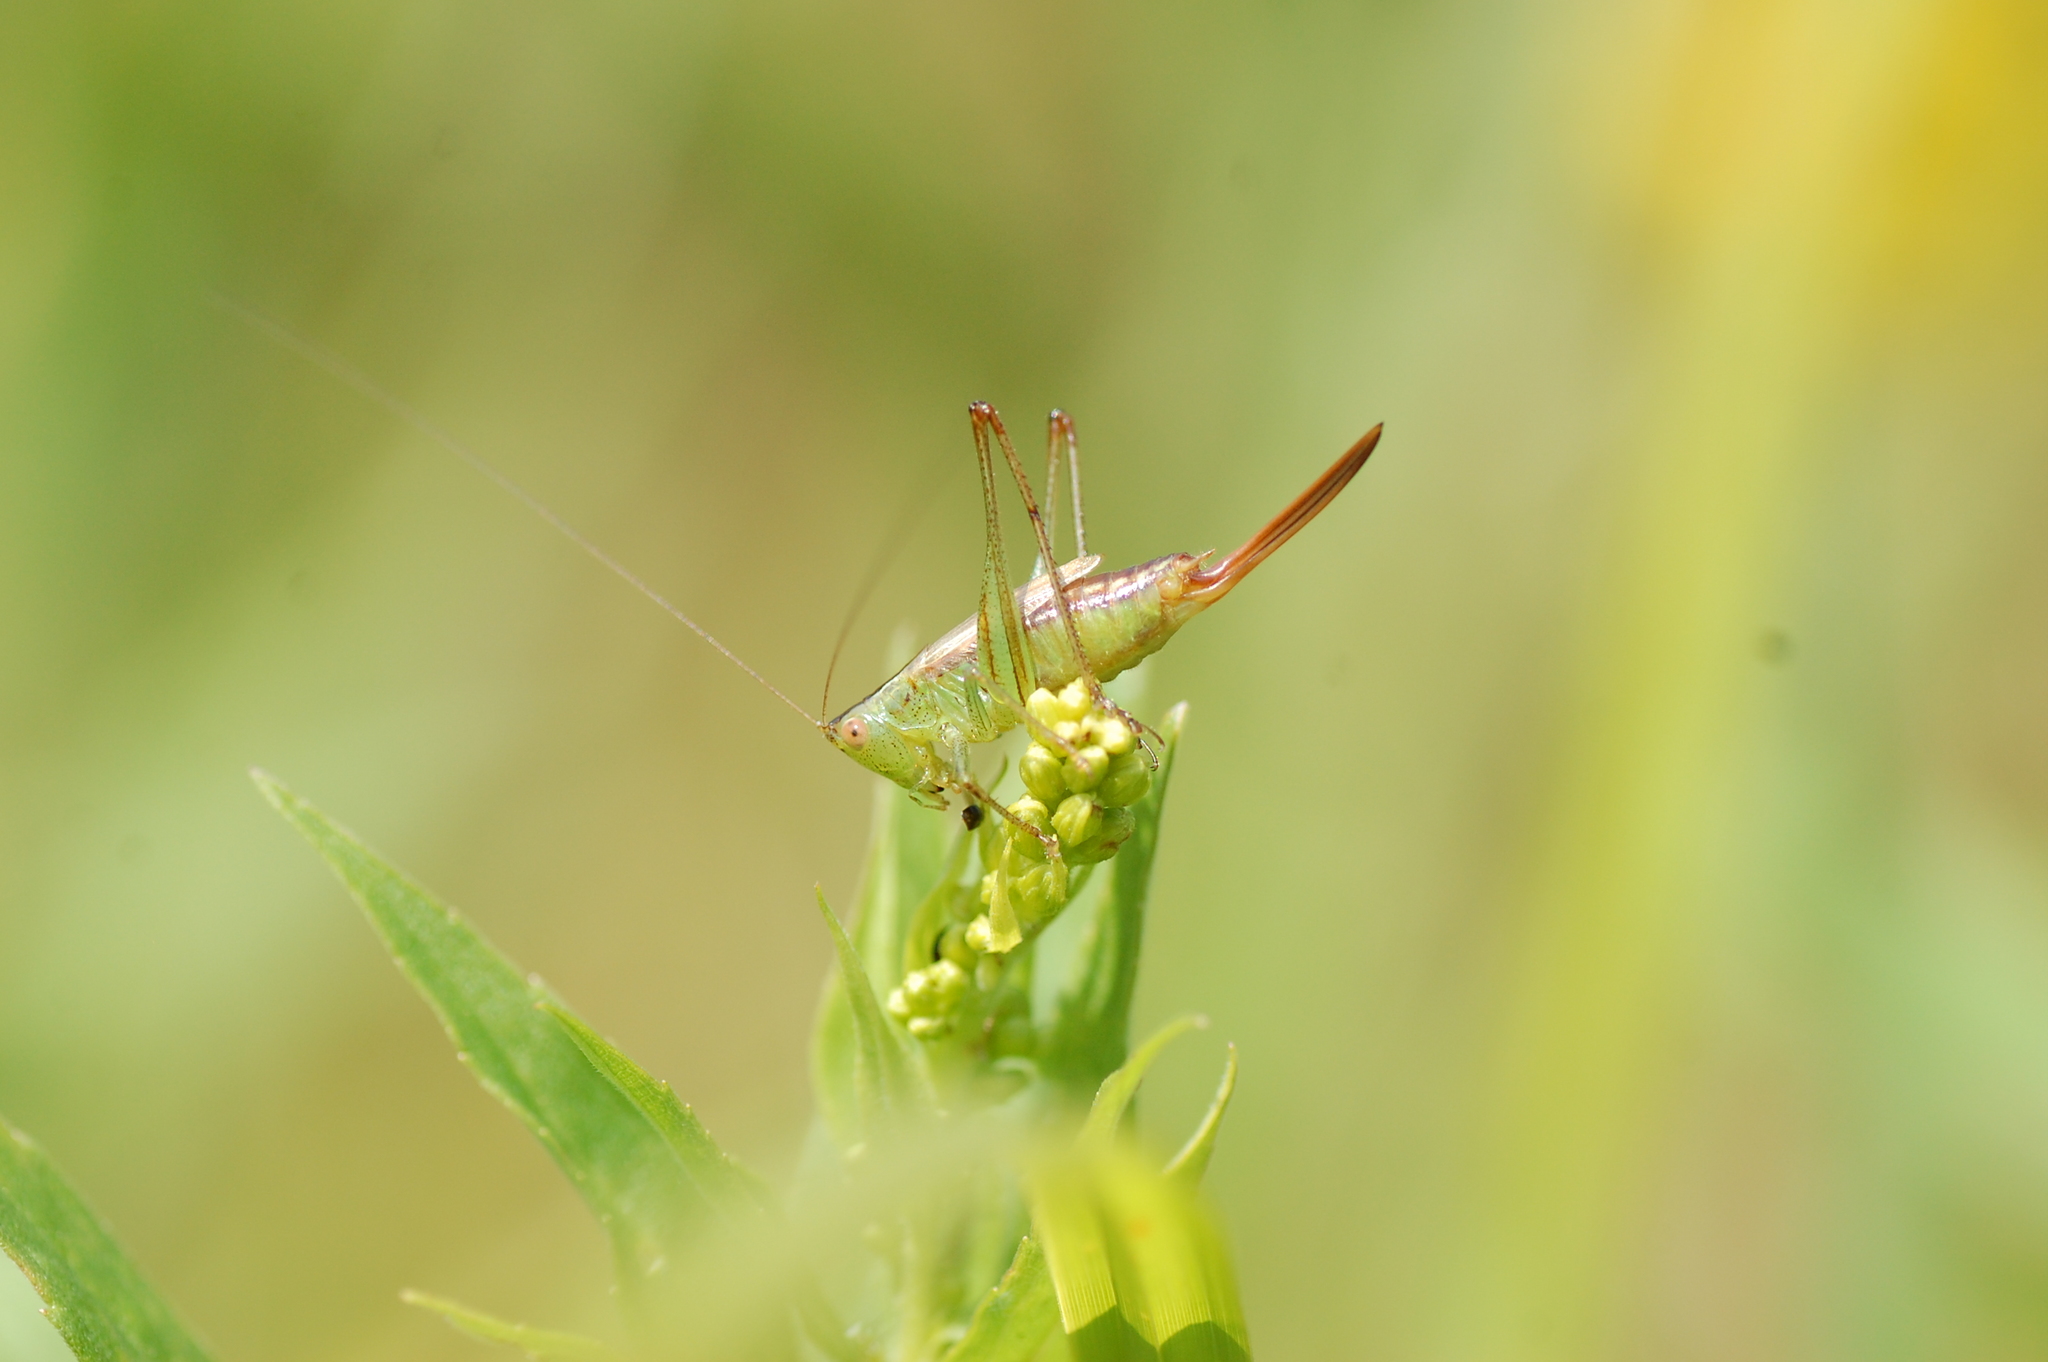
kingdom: Animalia
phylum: Arthropoda
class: Insecta
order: Orthoptera
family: Tettigoniidae
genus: Conocephalus
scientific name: Conocephalus brevipennis
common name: Short-winged meadow katydid
